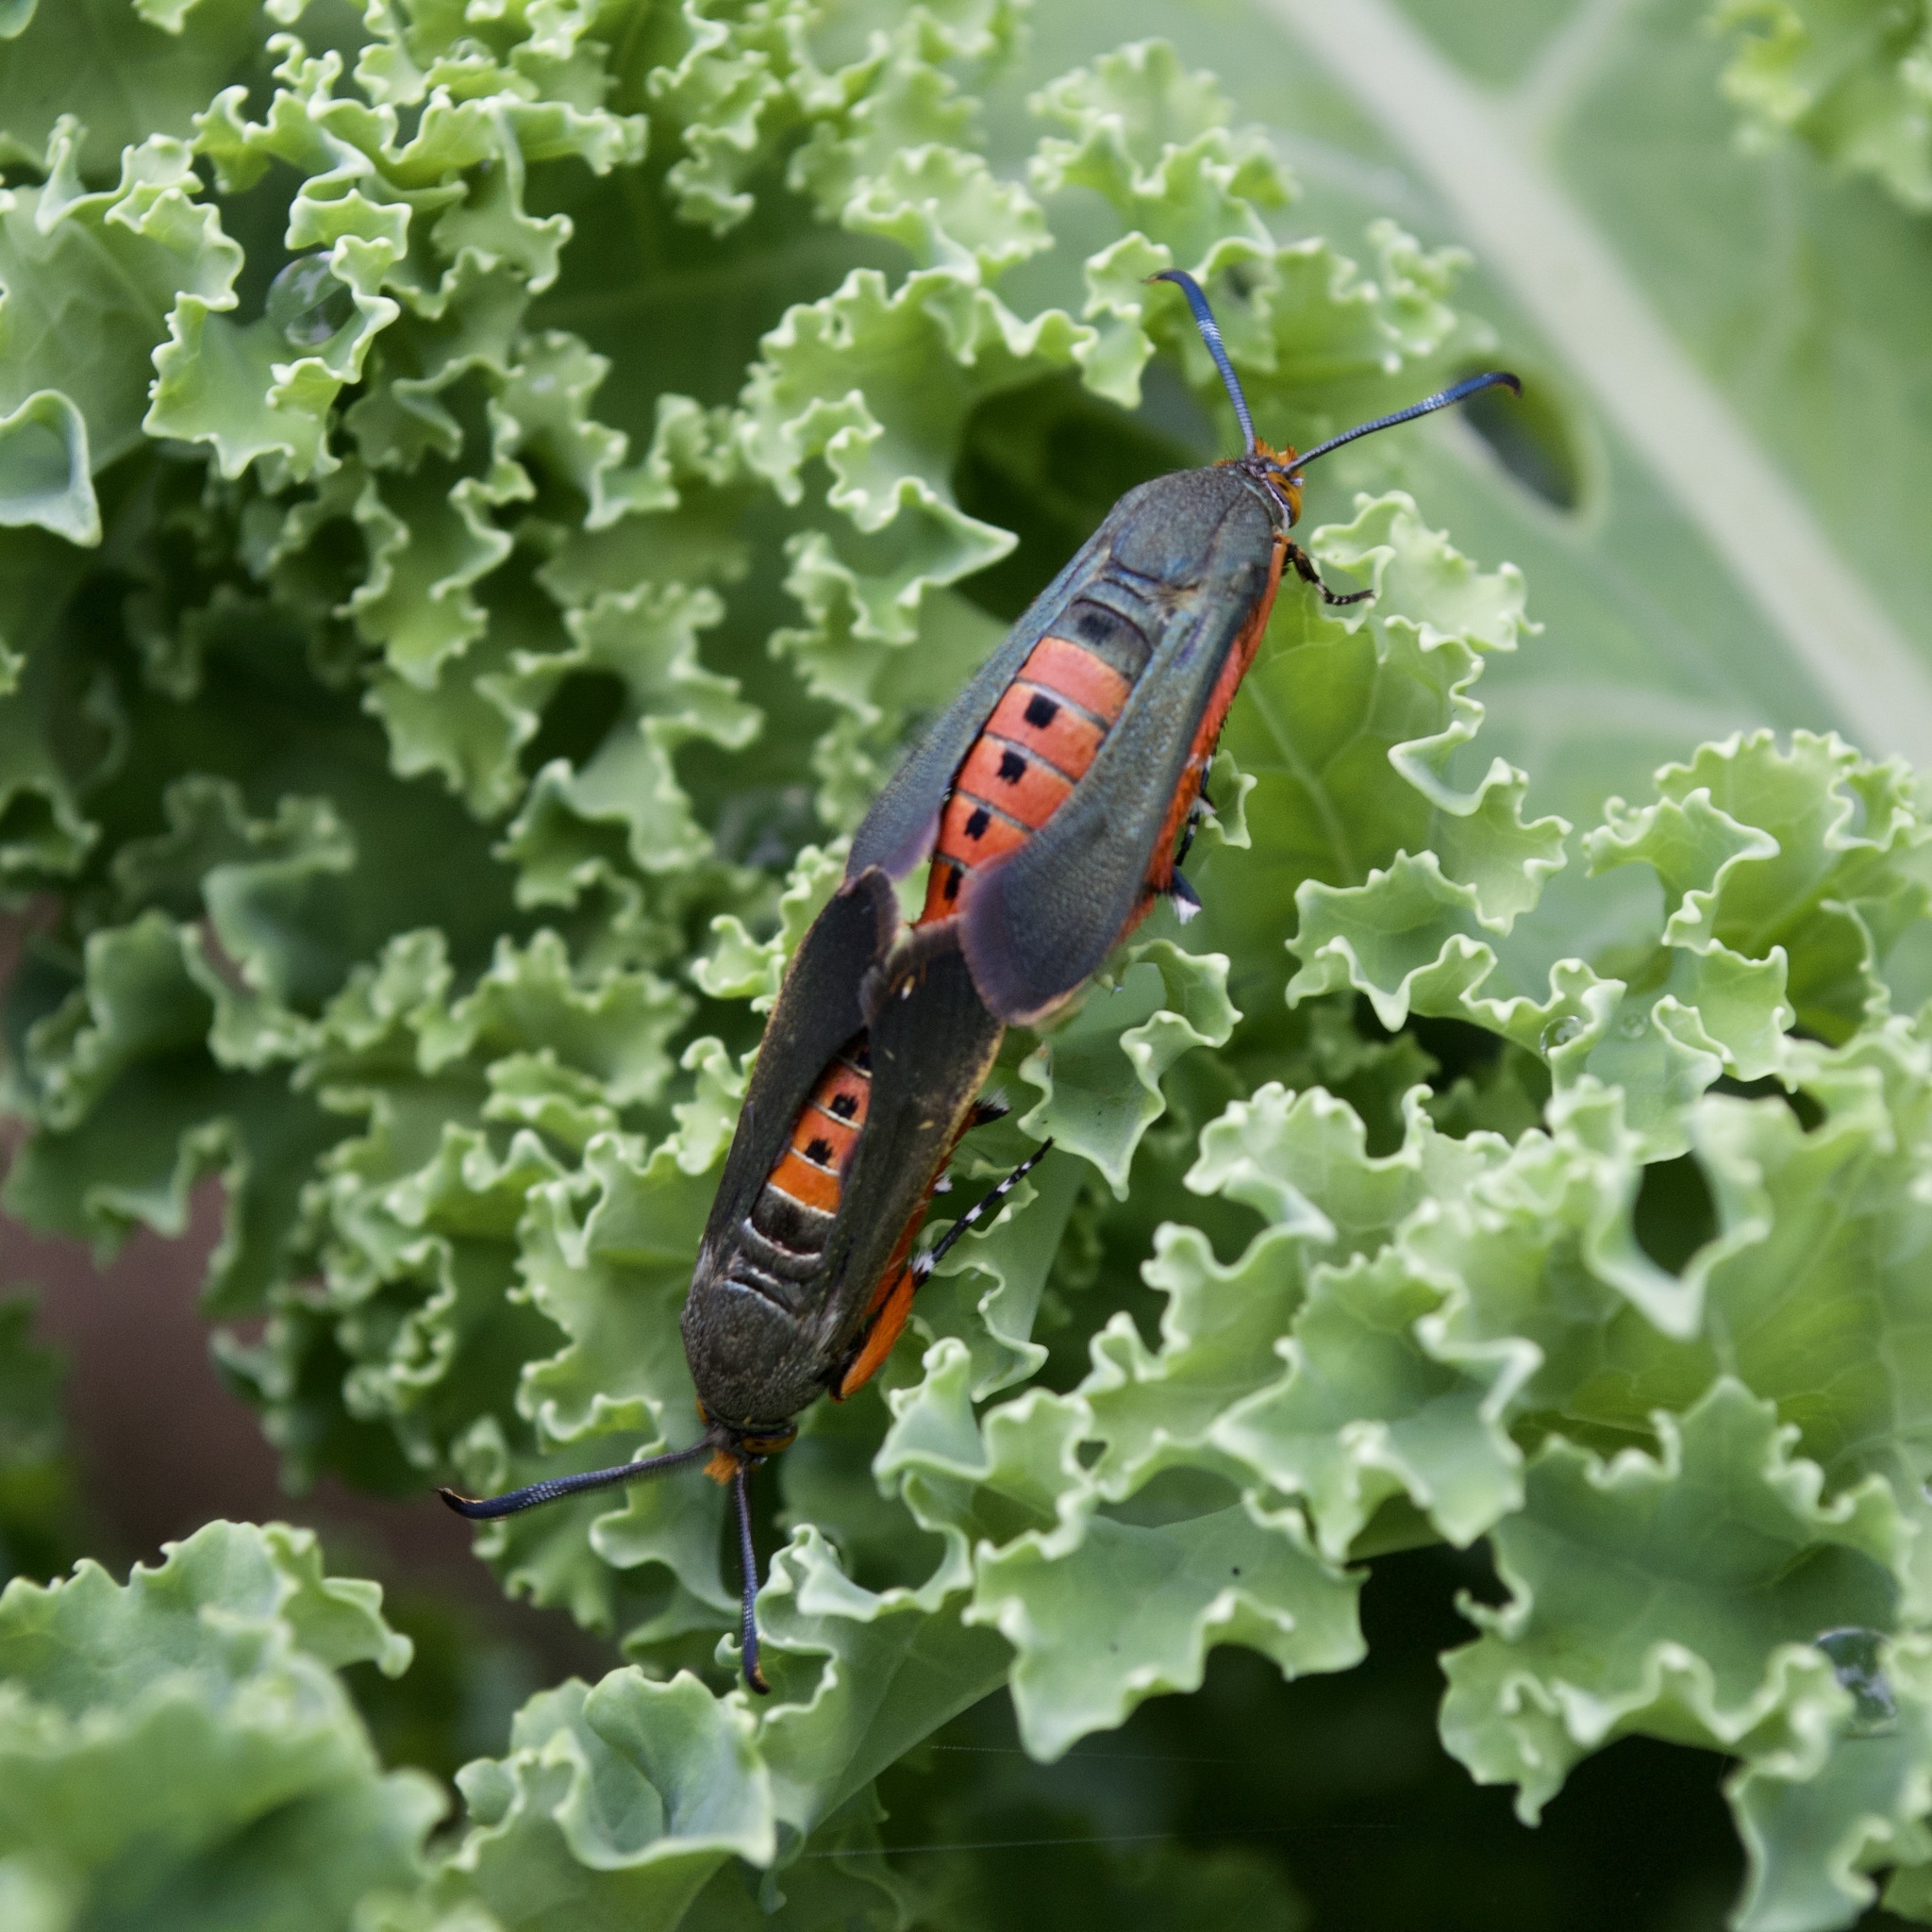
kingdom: Animalia
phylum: Arthropoda
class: Insecta
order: Lepidoptera
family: Sesiidae
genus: Eichlinia
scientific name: Eichlinia cucurbitae
